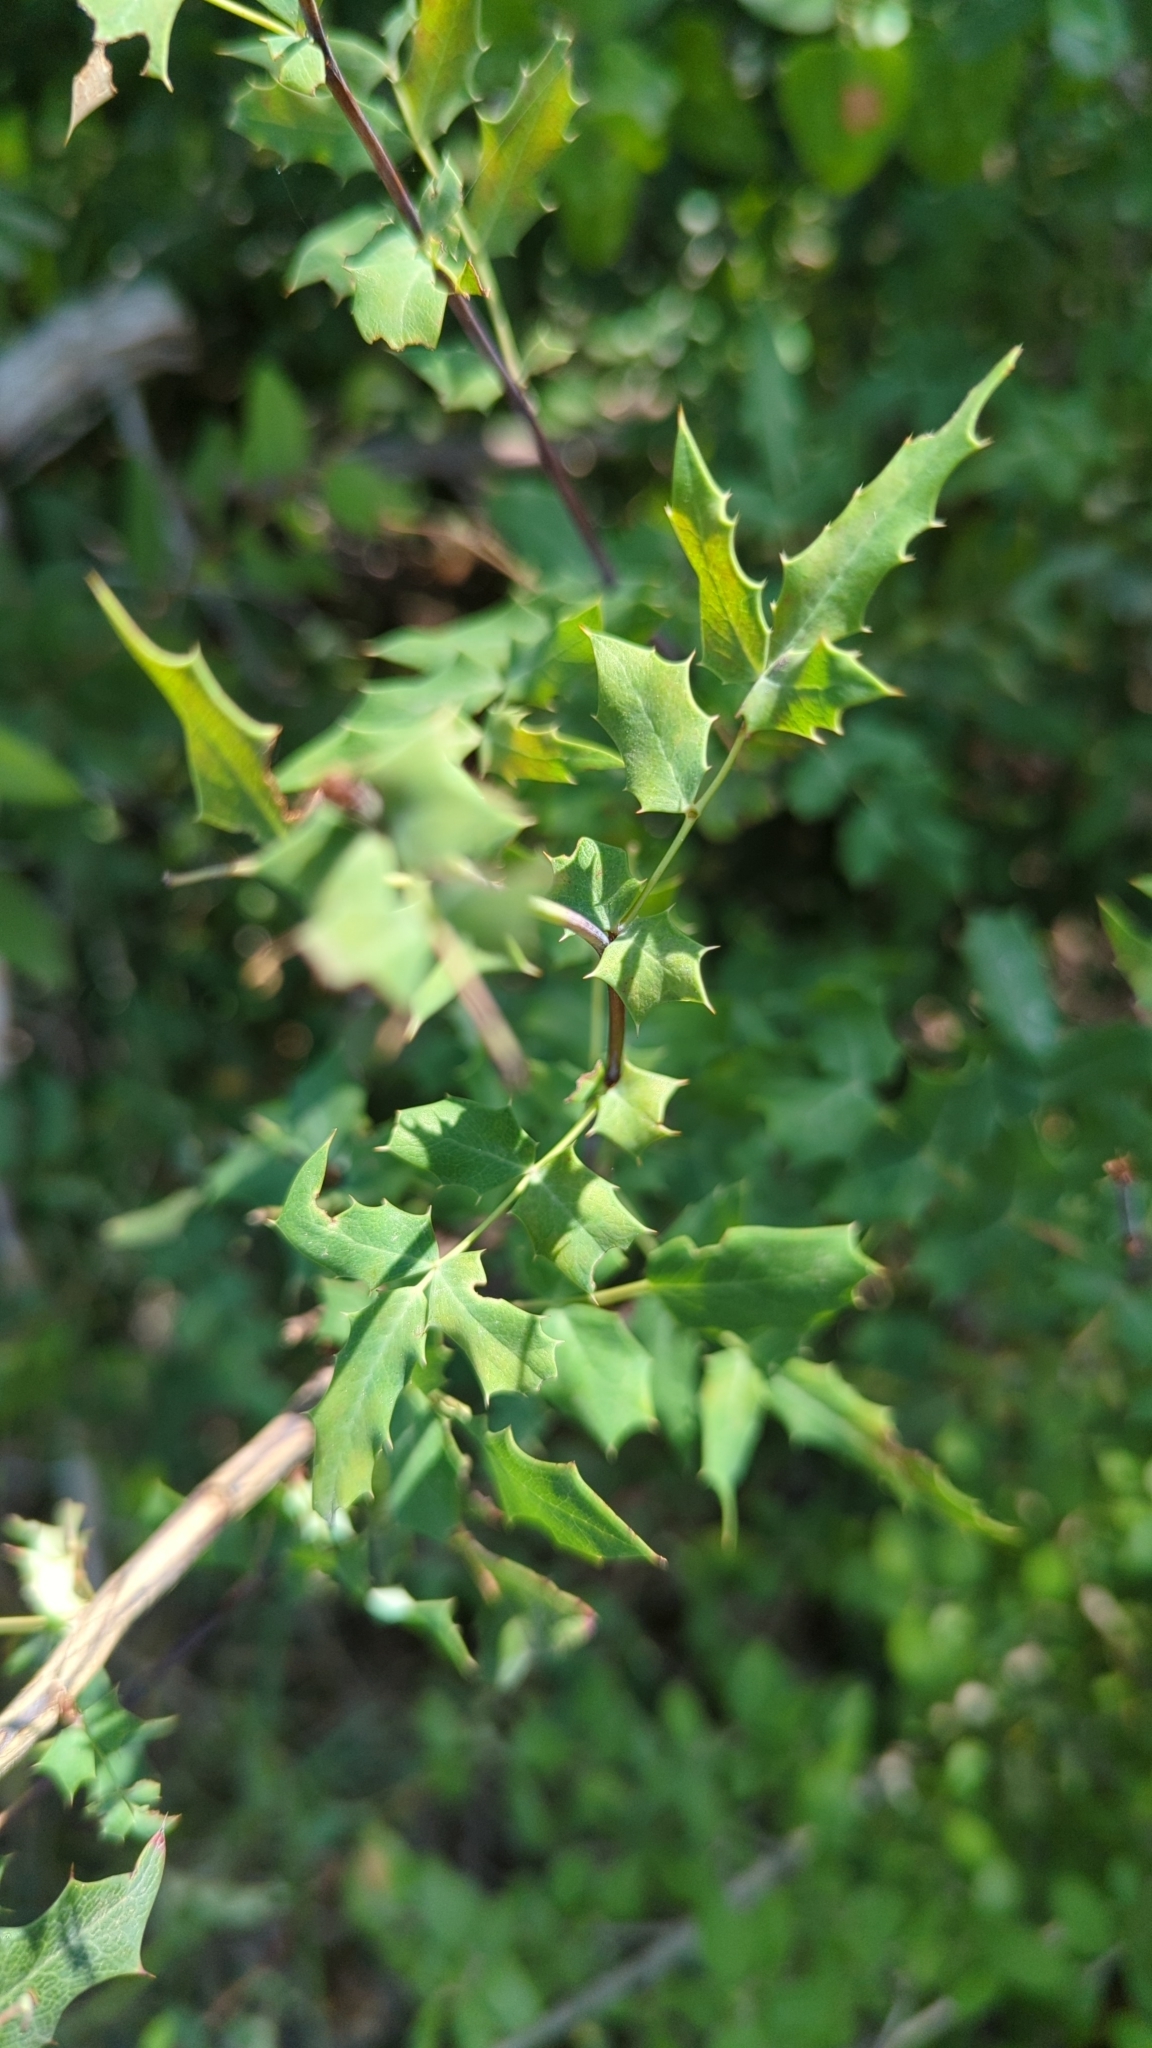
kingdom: Plantae
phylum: Tracheophyta
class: Magnoliopsida
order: Ranunculales
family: Berberidaceae
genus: Berberis
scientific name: Berberis swaseyi
